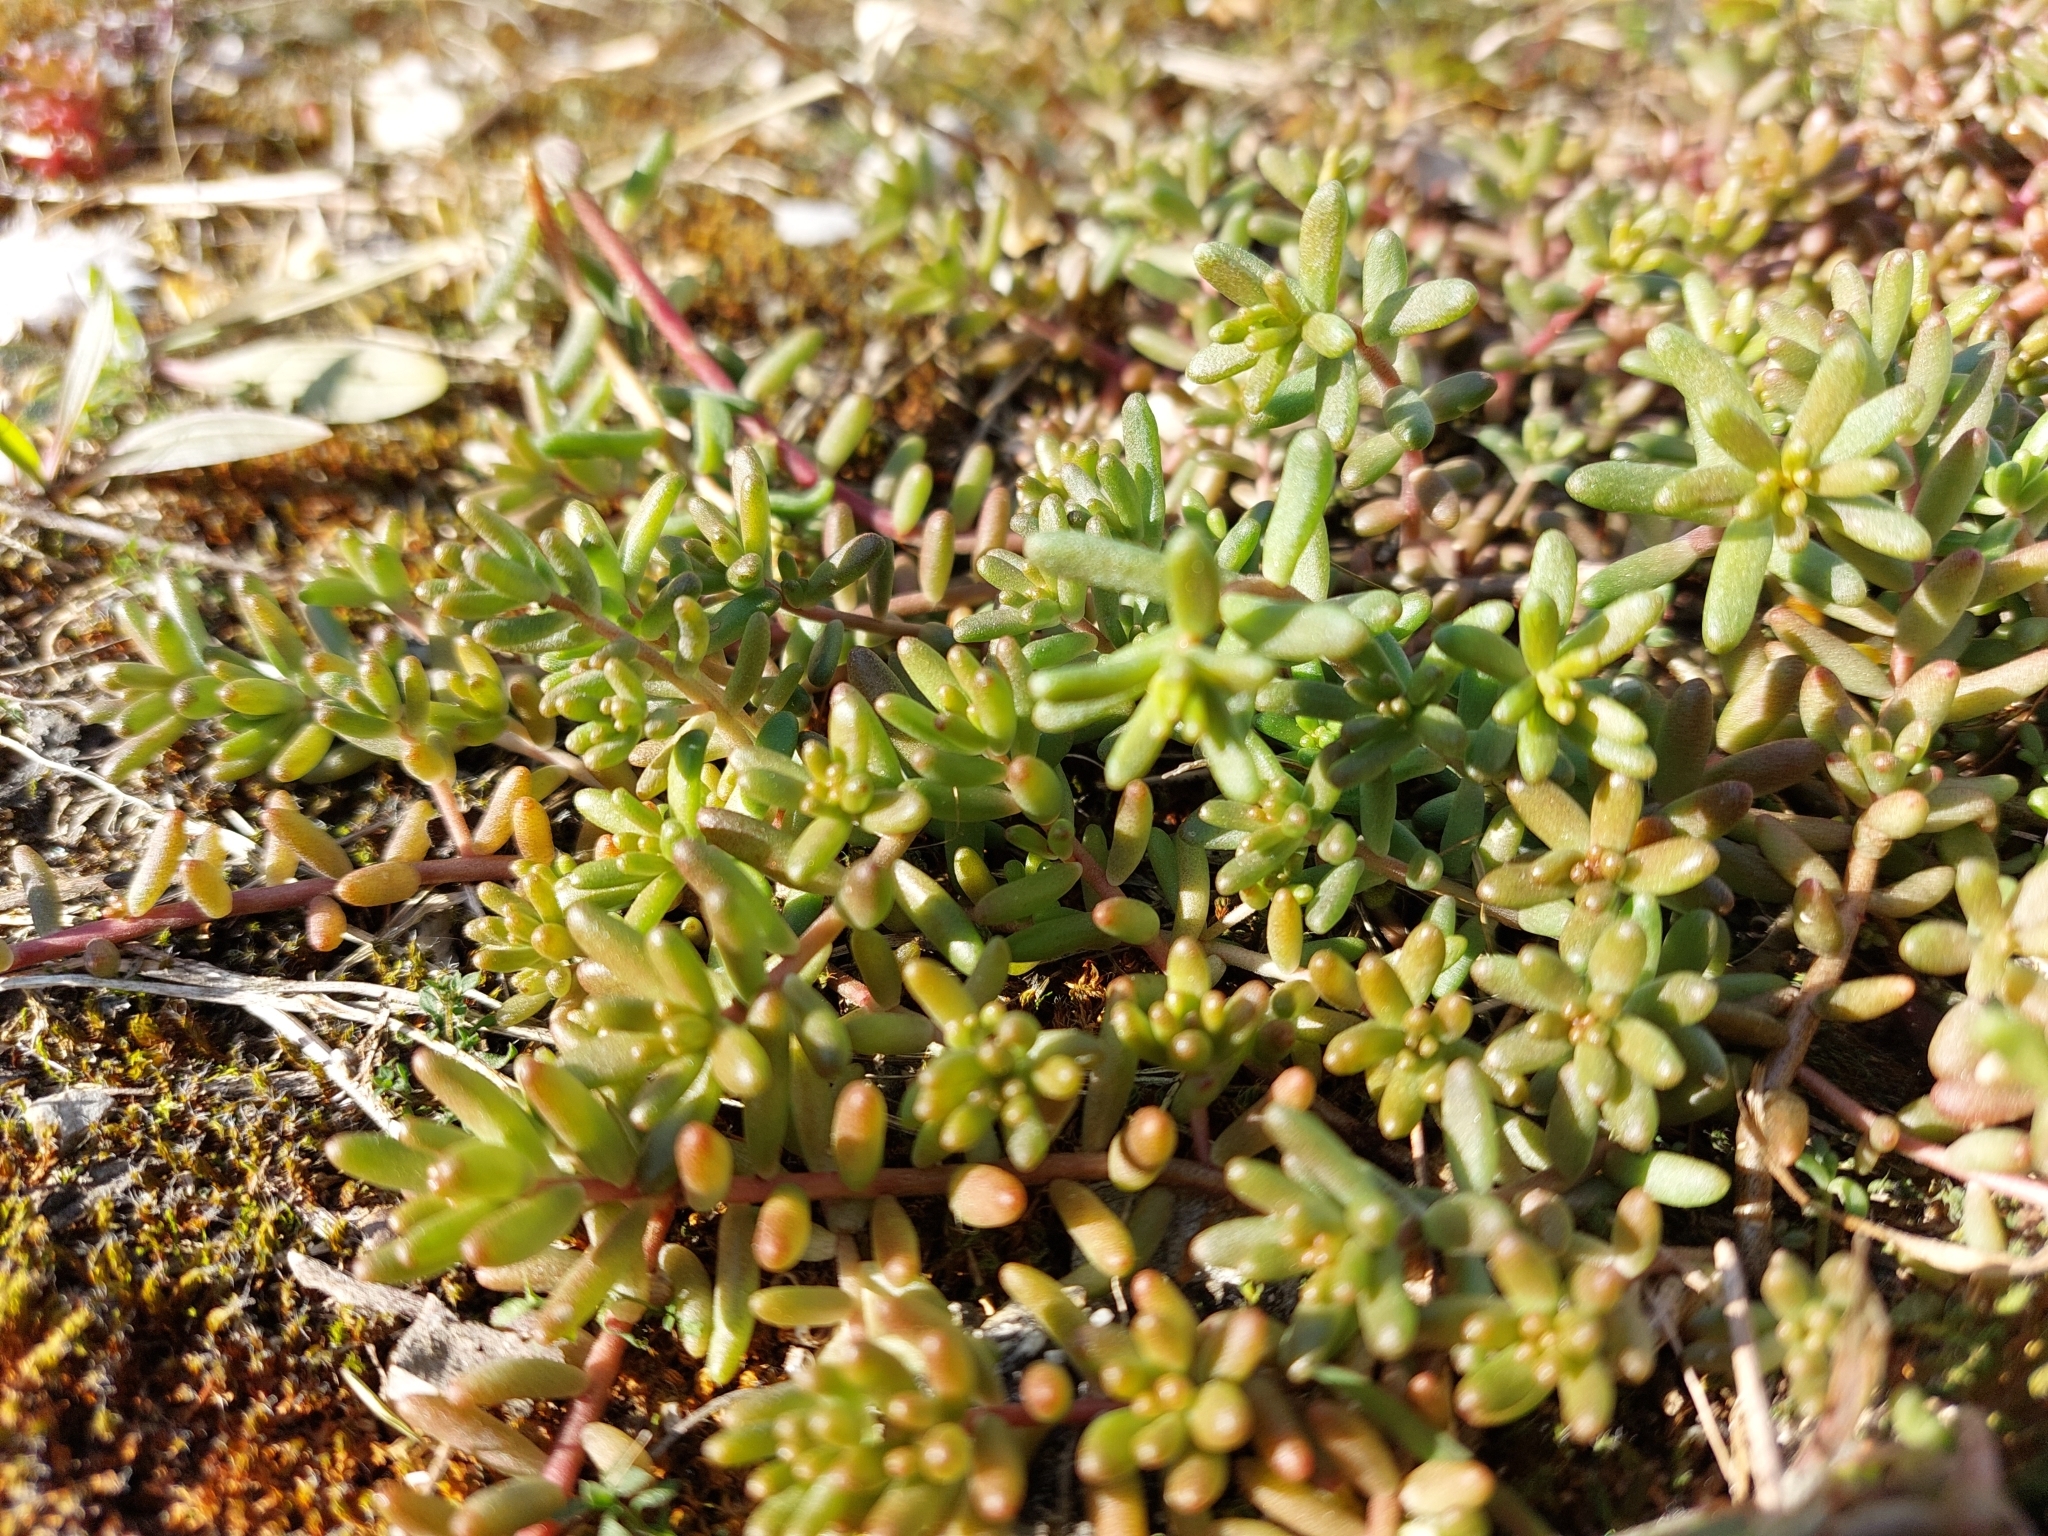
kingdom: Plantae
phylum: Tracheophyta
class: Magnoliopsida
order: Saxifragales
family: Crassulaceae
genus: Sedum
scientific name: Sedum album
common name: White stonecrop
